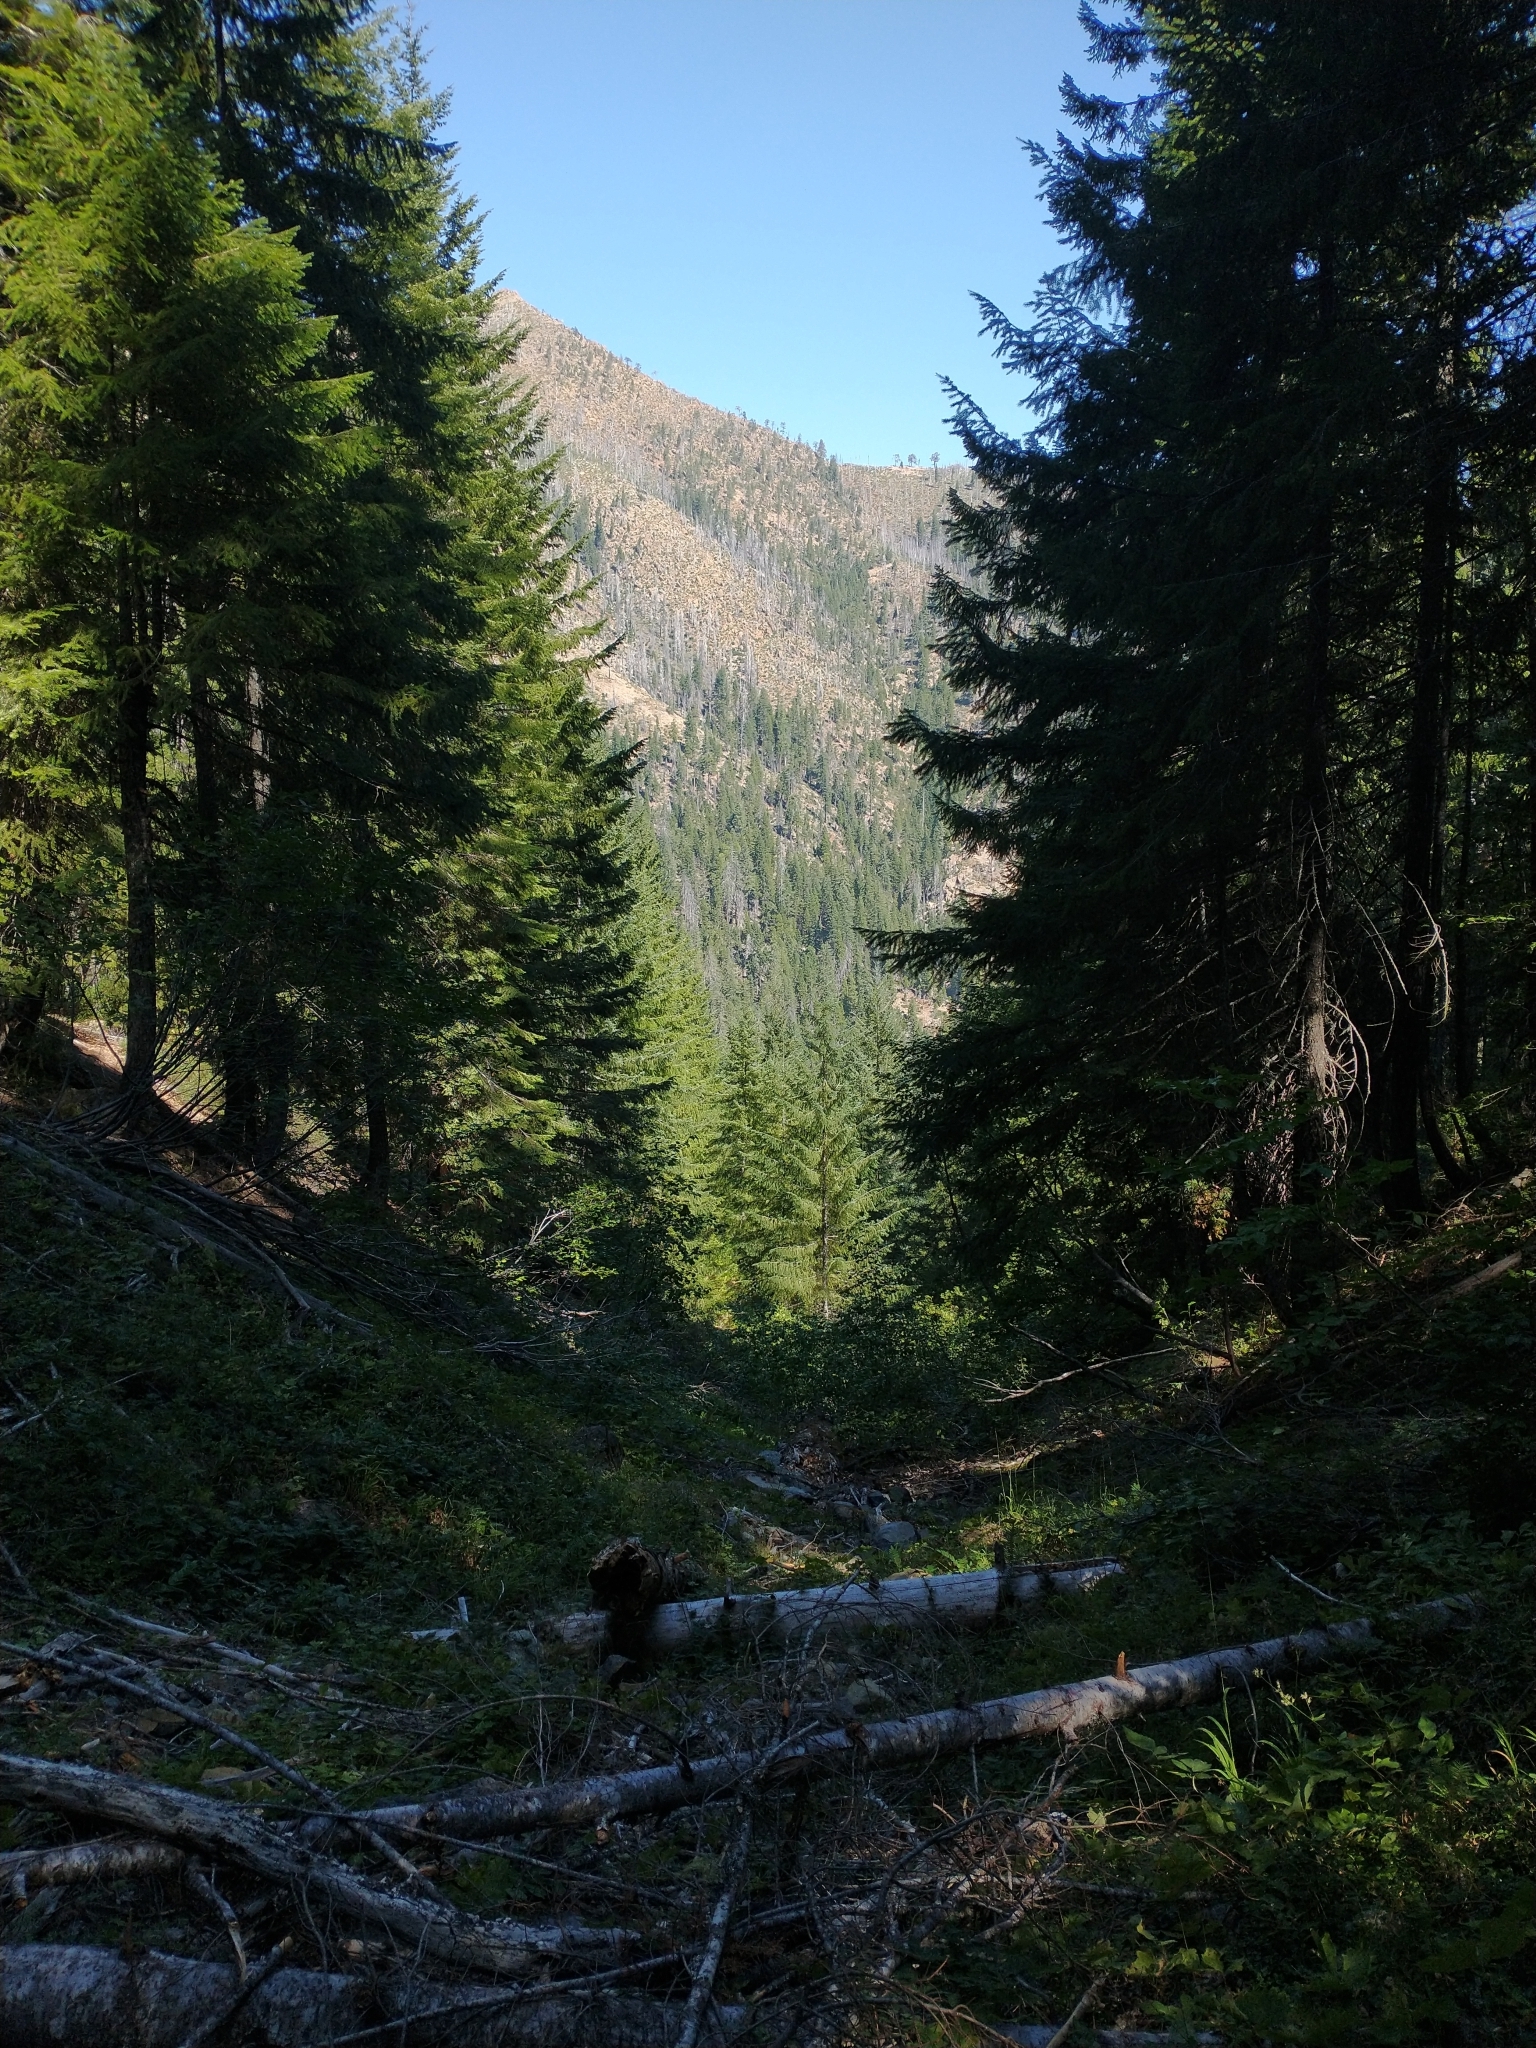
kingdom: Plantae
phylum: Tracheophyta
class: Pinopsida
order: Pinales
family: Pinaceae
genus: Pseudotsuga
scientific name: Pseudotsuga menziesii
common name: Douglas fir
